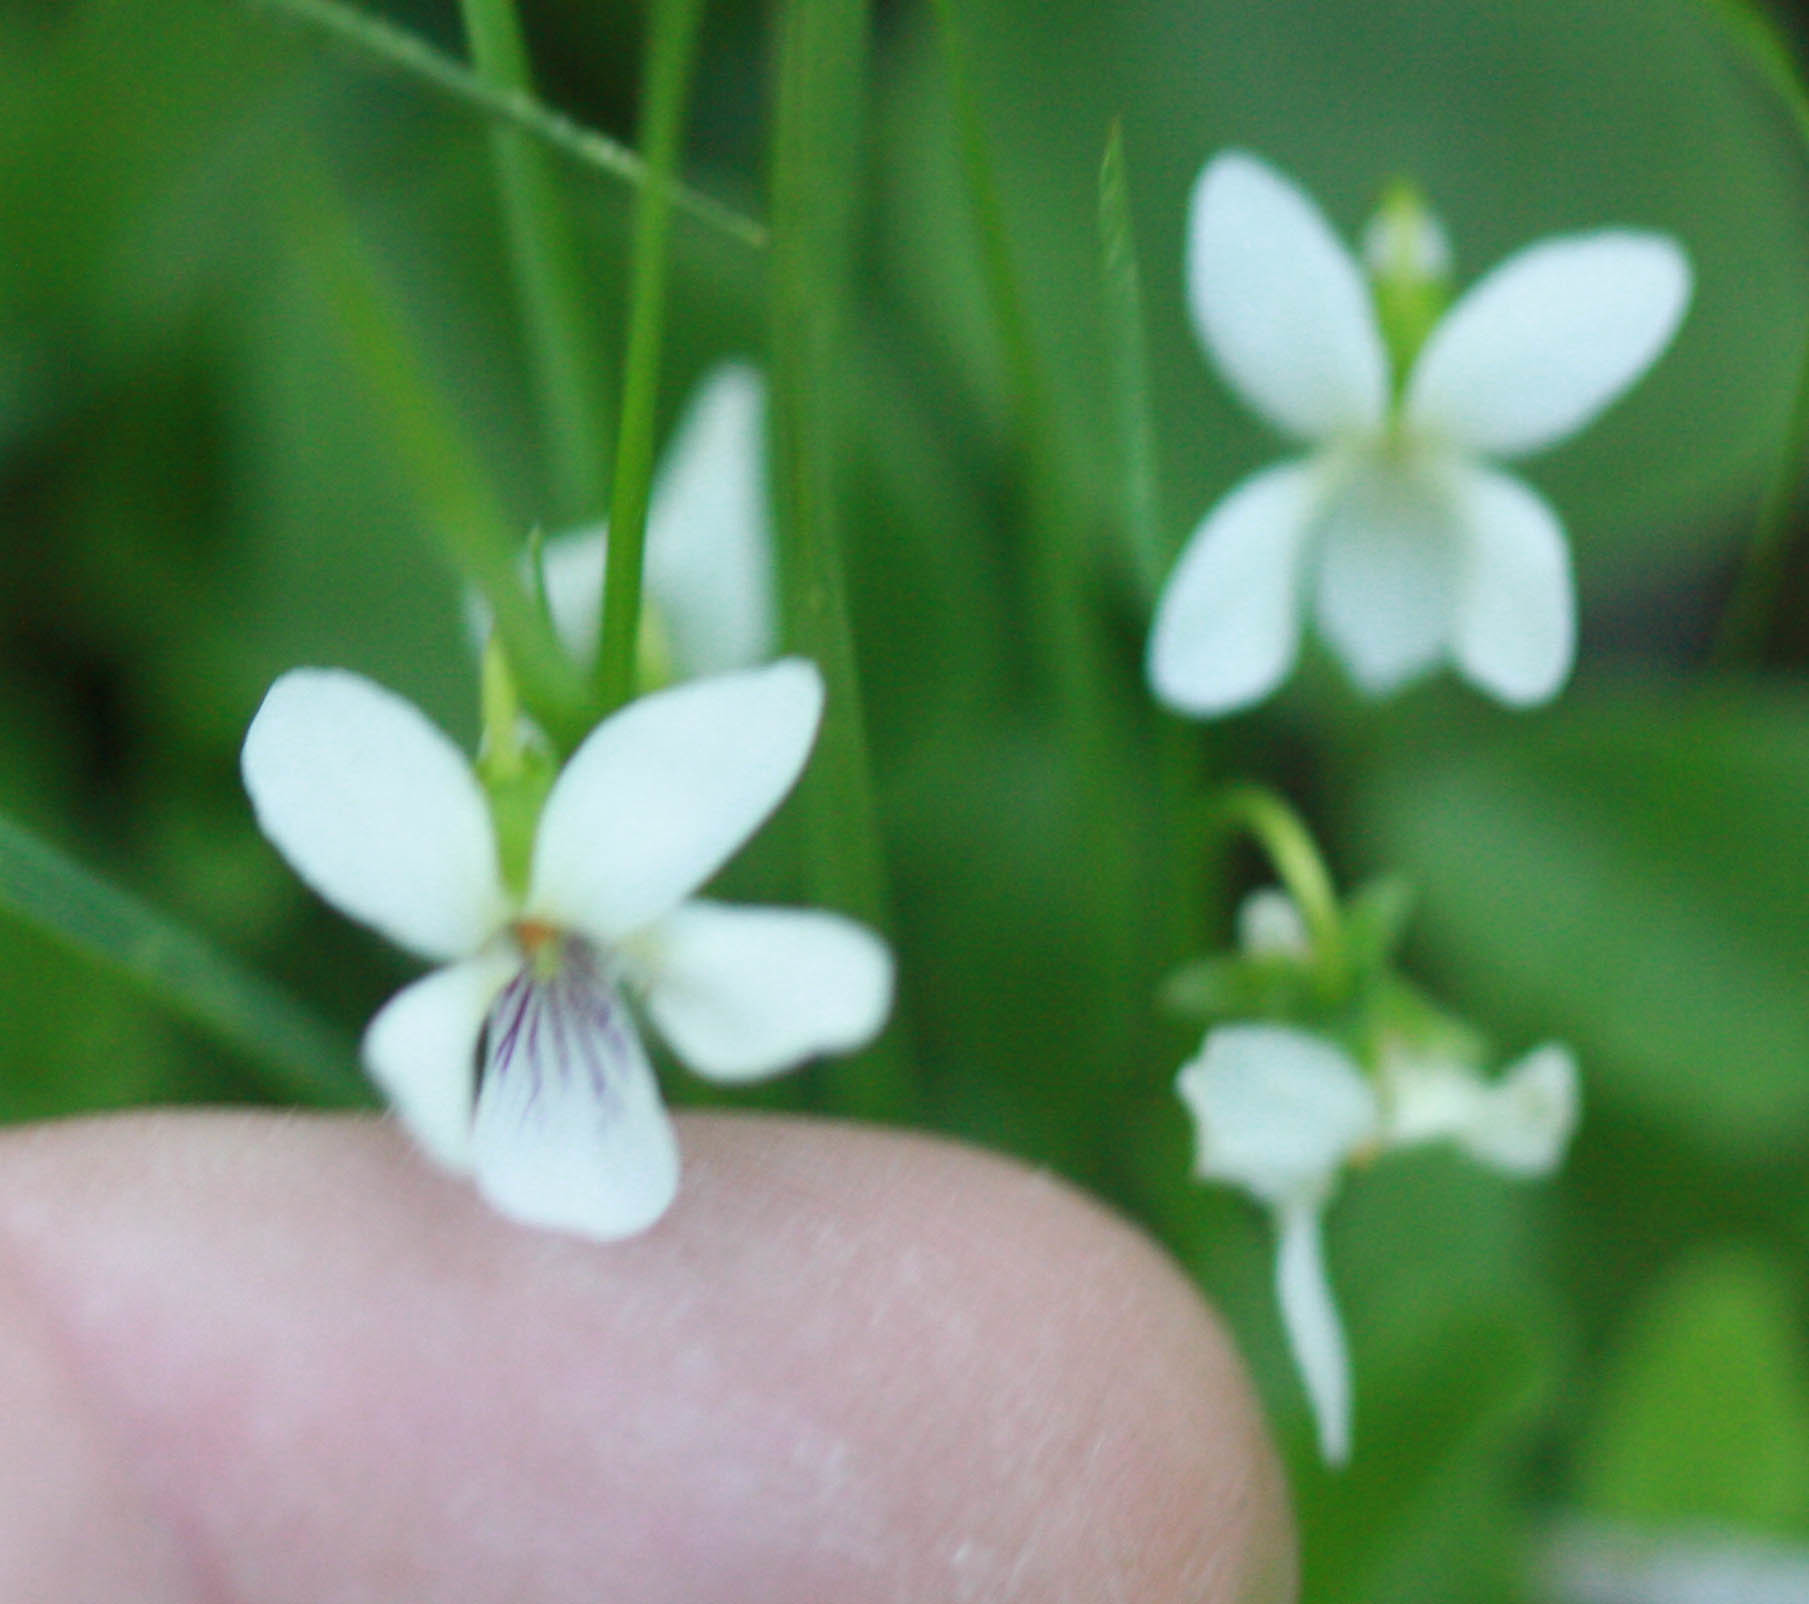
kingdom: Plantae
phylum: Tracheophyta
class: Magnoliopsida
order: Malpighiales
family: Violaceae
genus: Viola
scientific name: Viola macloskeyi
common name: Macloskey's violet
